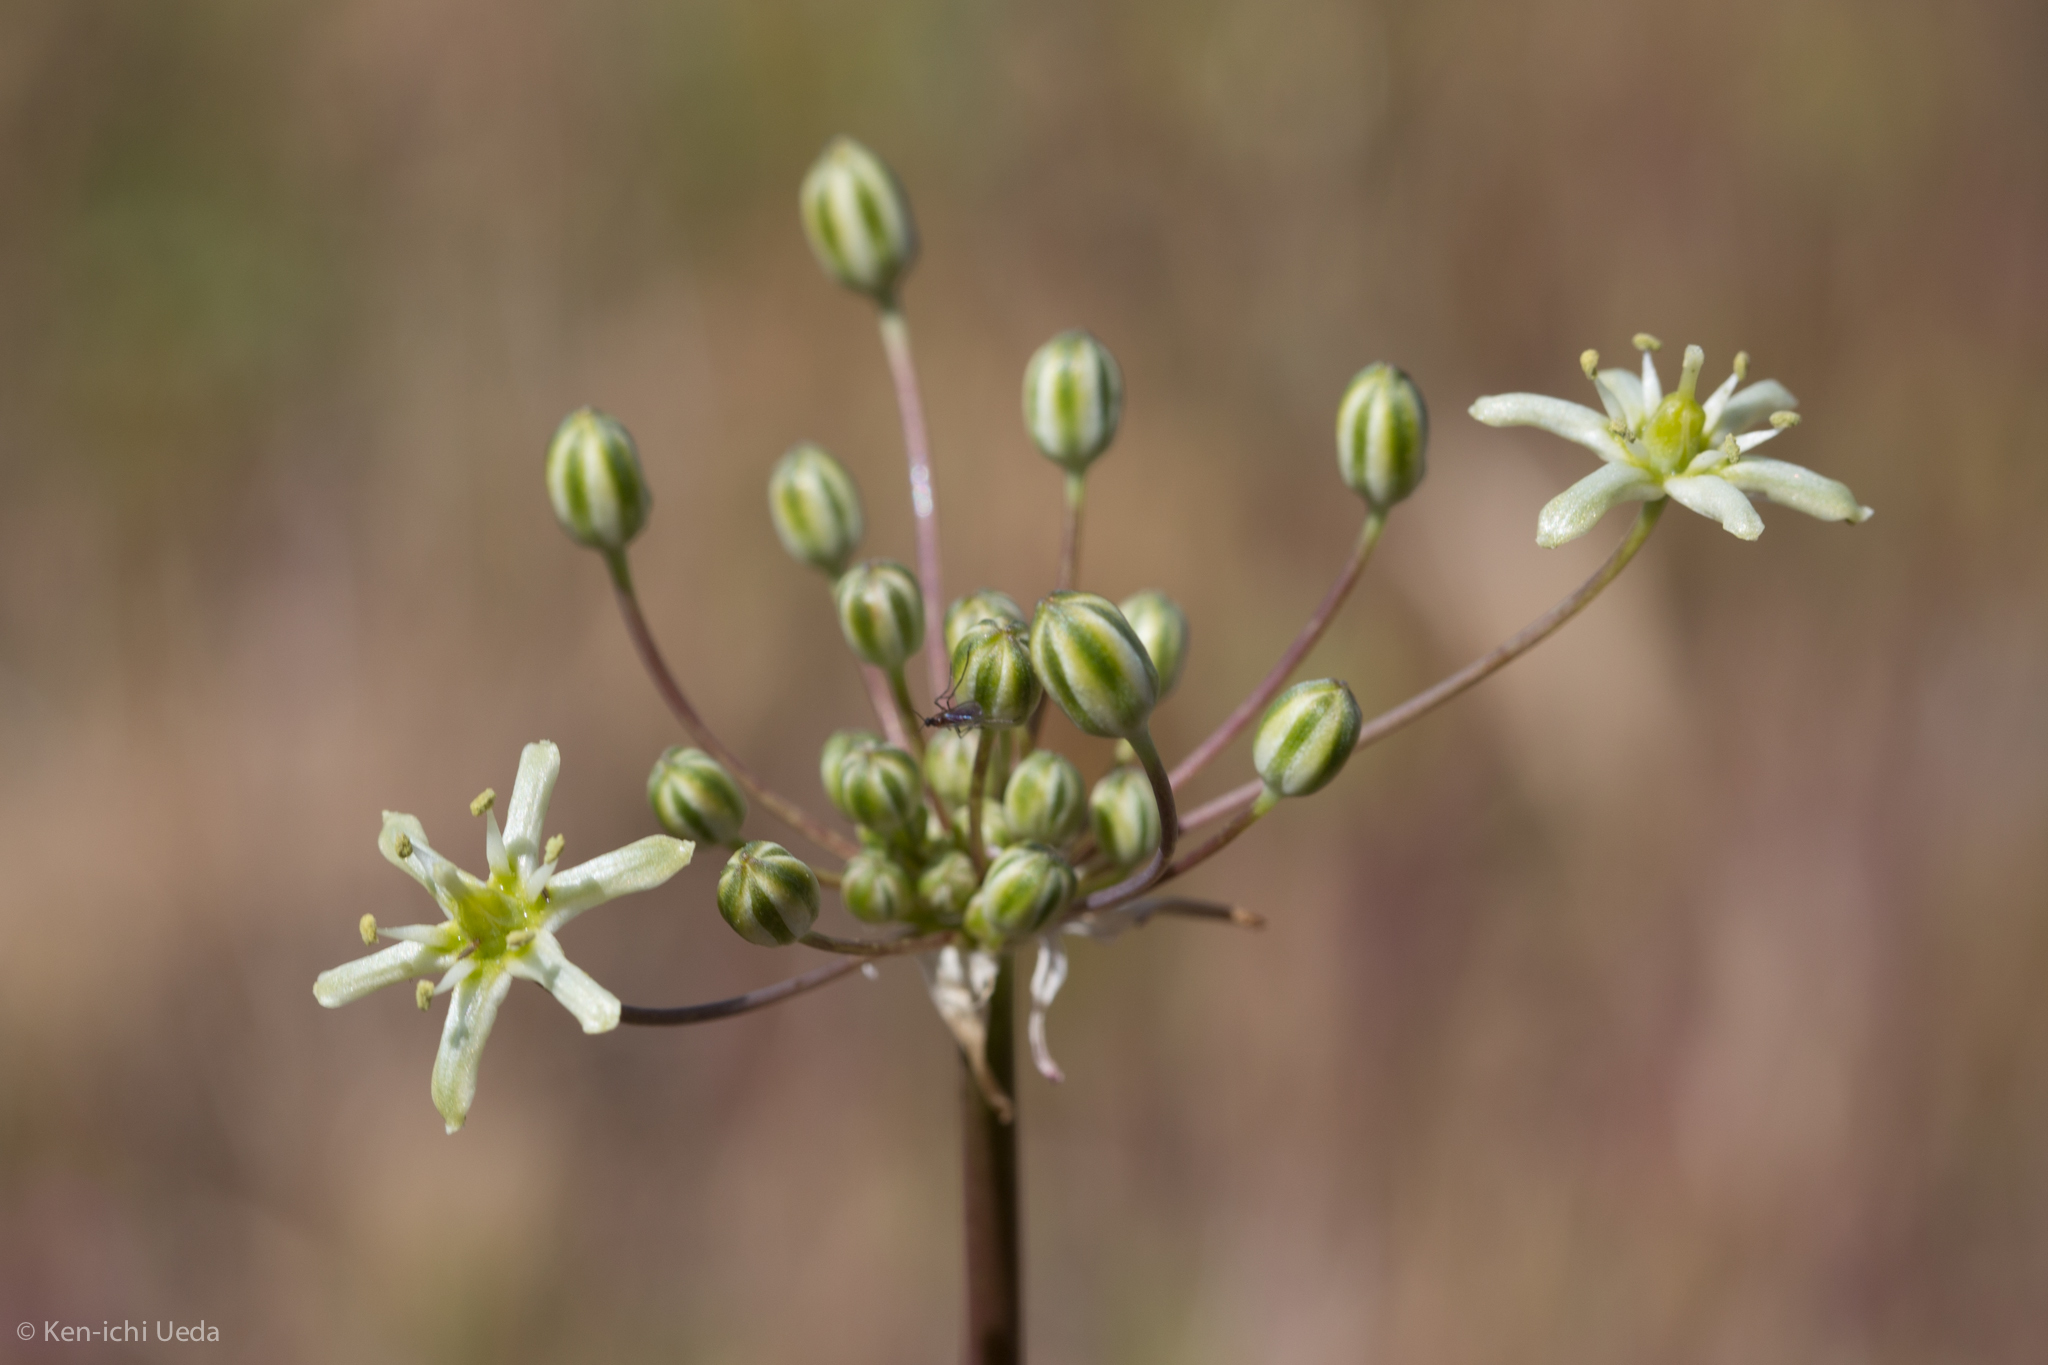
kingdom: Plantae
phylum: Tracheophyta
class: Liliopsida
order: Asparagales
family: Asparagaceae
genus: Muilla
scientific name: Muilla maritima
